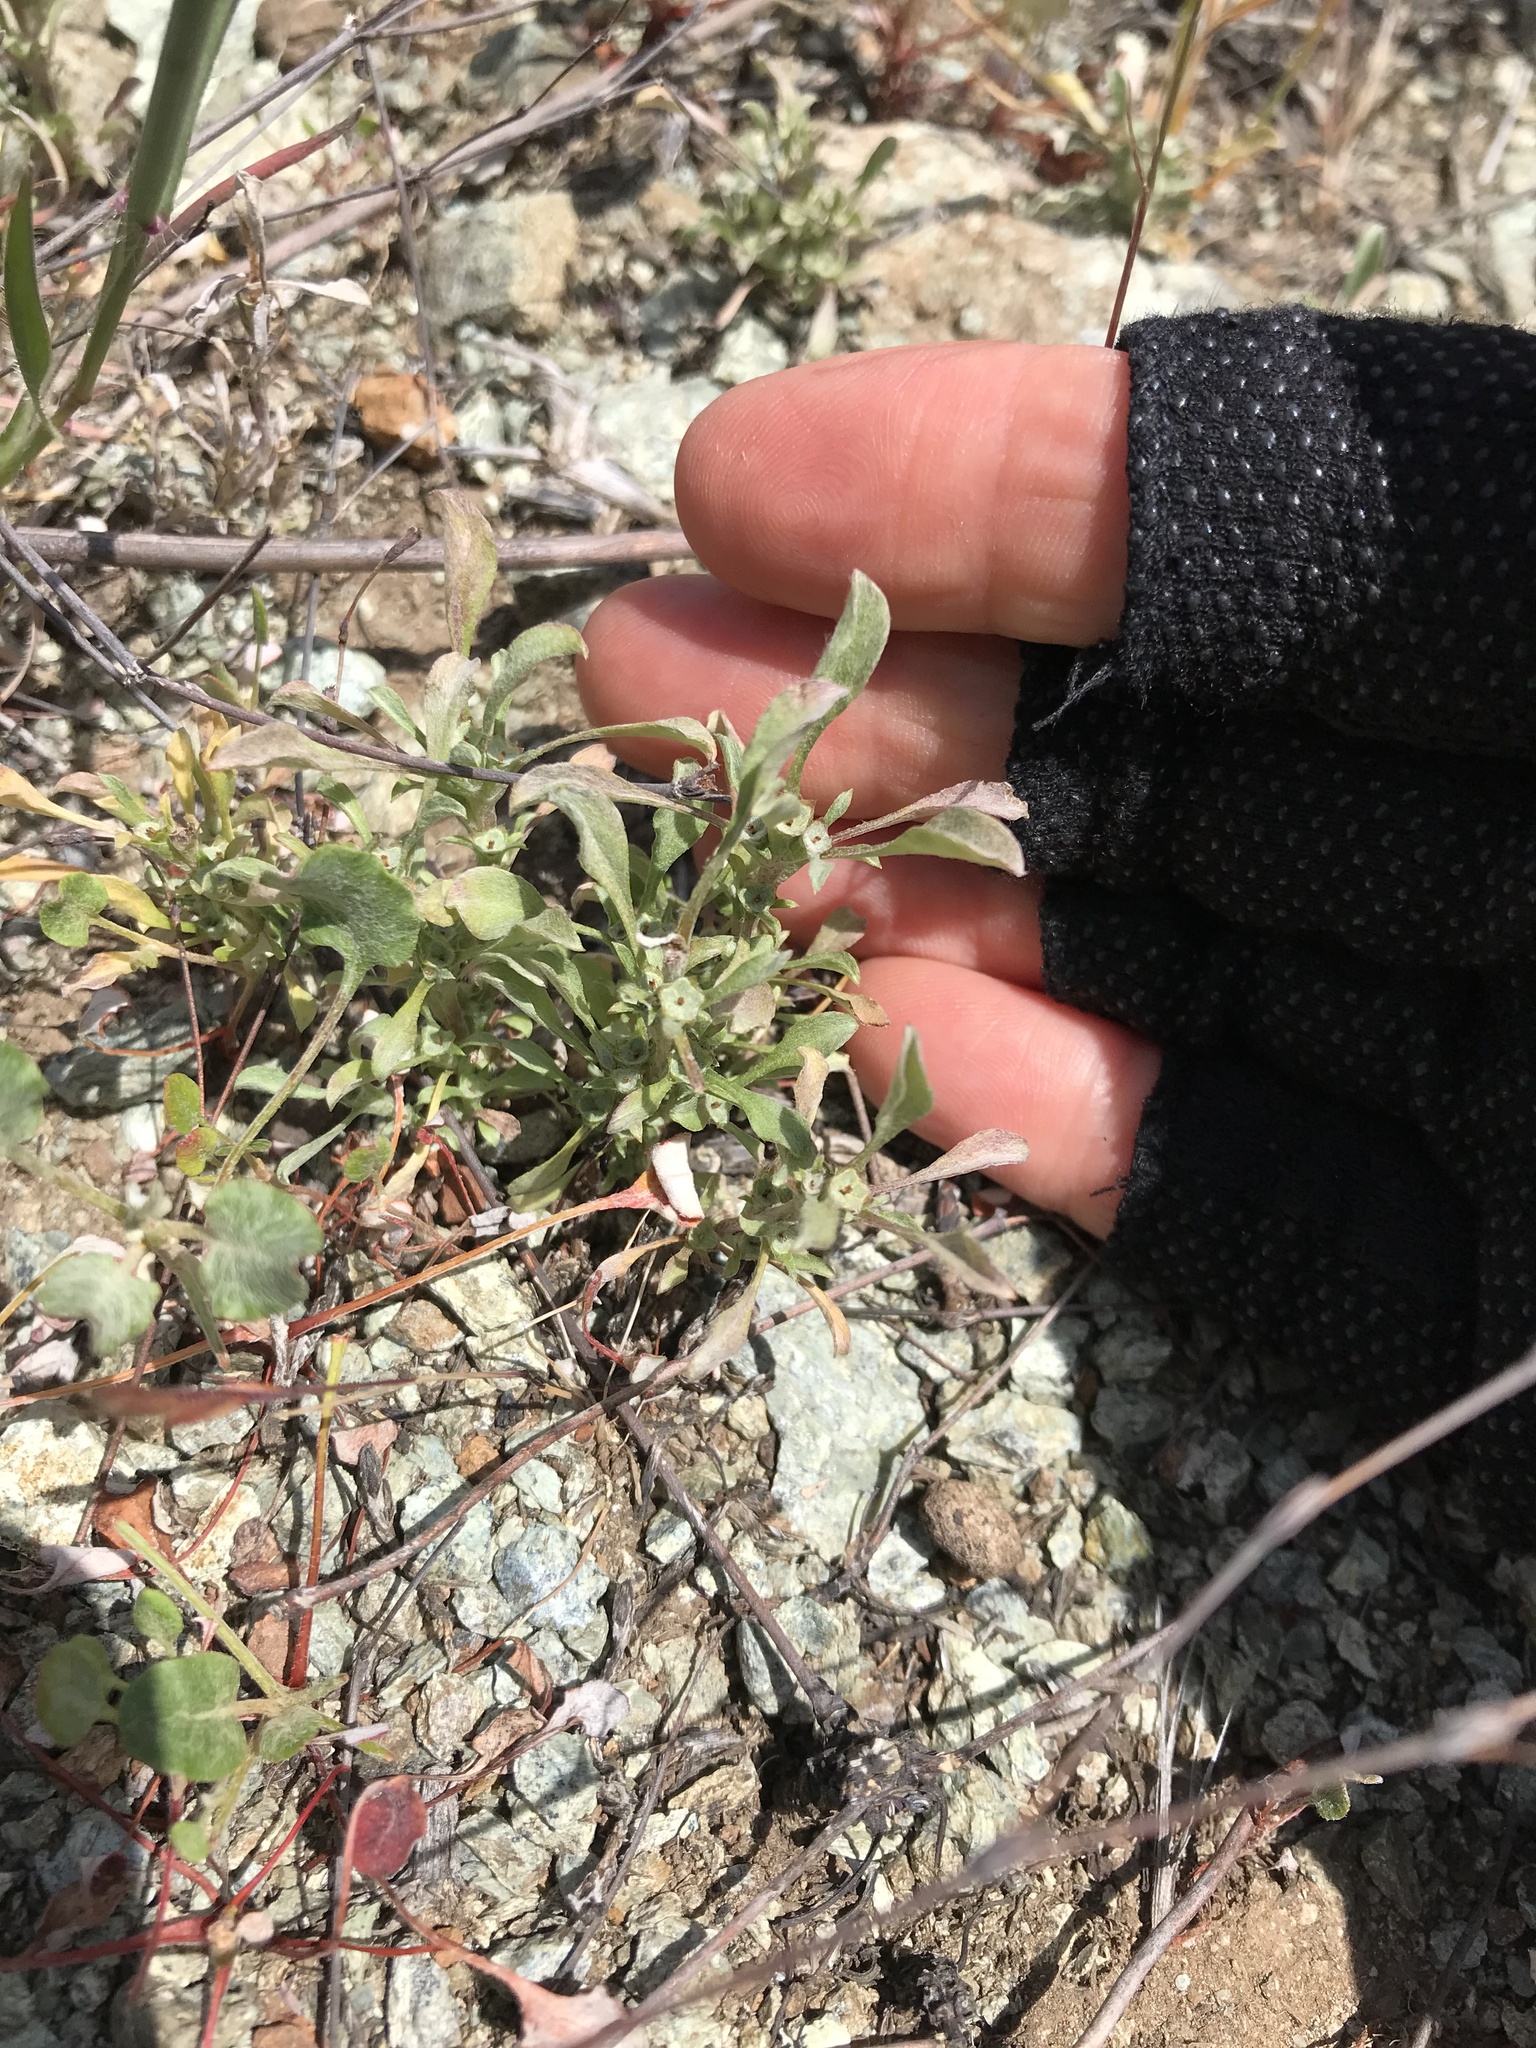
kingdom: Plantae
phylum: Tracheophyta
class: Magnoliopsida
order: Asterales
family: Asteraceae
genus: Hesperevax
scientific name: Hesperevax sparsiflora
